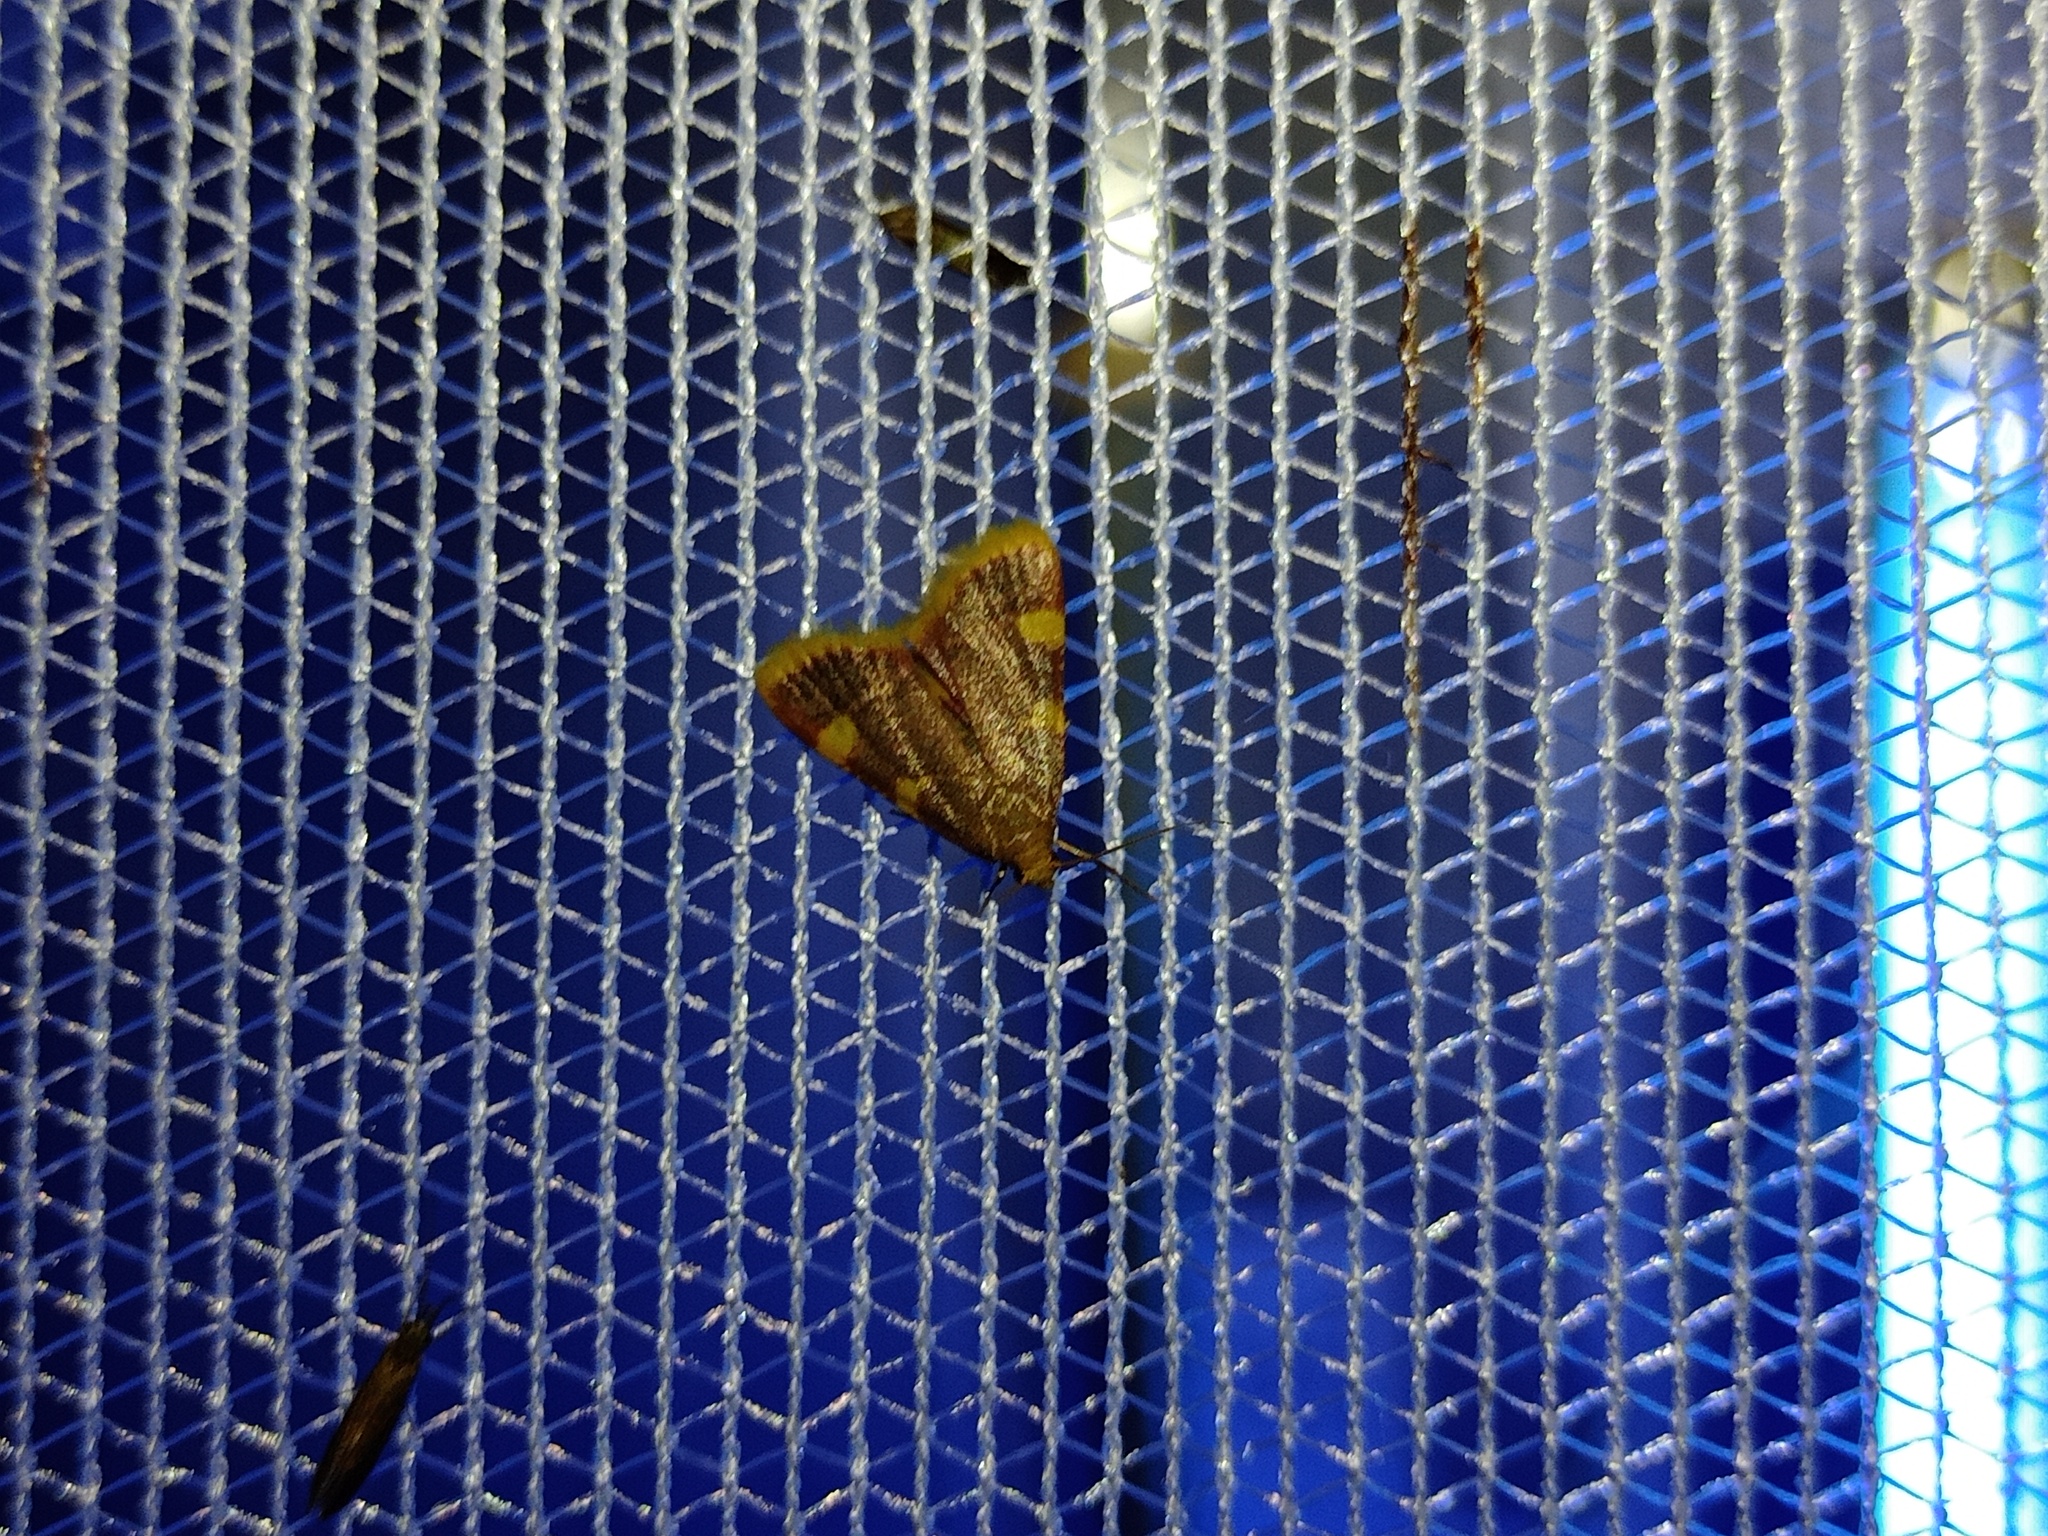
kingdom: Animalia
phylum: Arthropoda
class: Insecta
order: Lepidoptera
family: Pyralidae
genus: Hypsopygia
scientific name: Hypsopygia costalis
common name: Gold triangle
